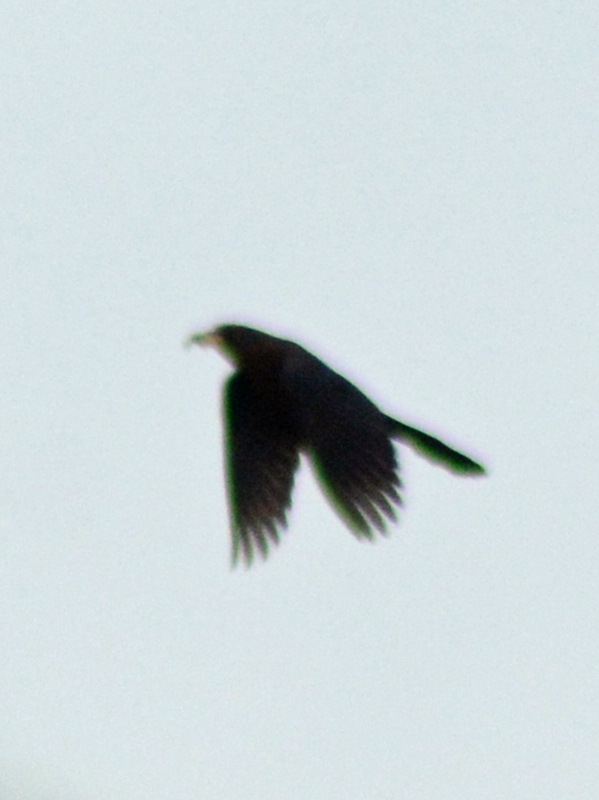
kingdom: Animalia
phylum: Chordata
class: Aves
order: Passeriformes
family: Icteridae
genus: Quiscalus
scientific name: Quiscalus mexicanus
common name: Great-tailed grackle
